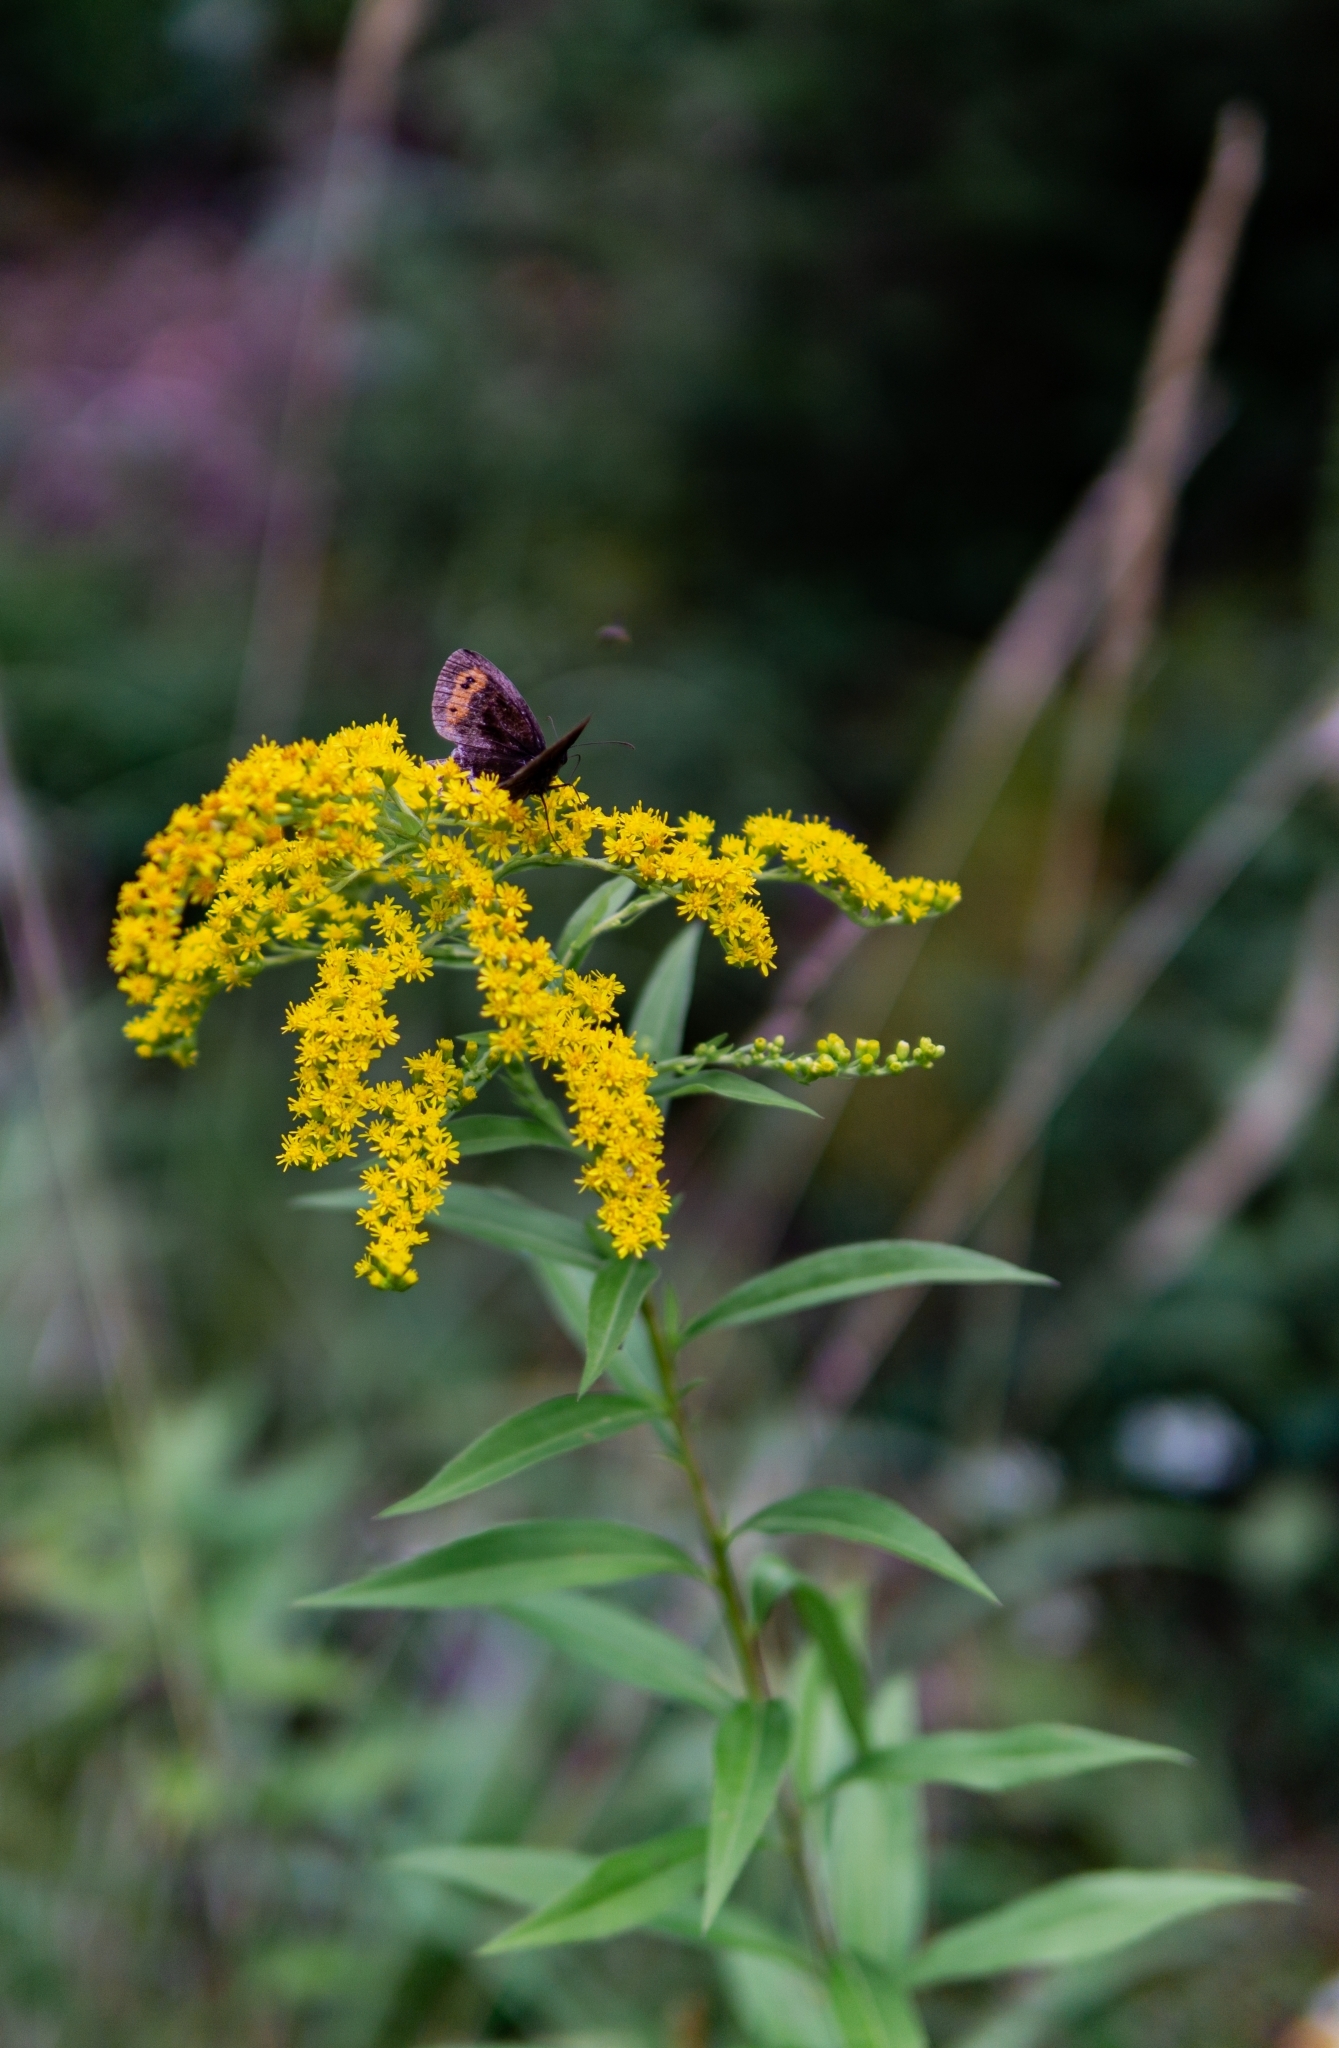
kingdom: Animalia
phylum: Arthropoda
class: Insecta
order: Lepidoptera
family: Nymphalidae
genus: Erebia
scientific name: Erebia aethiops
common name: Scotch argus
